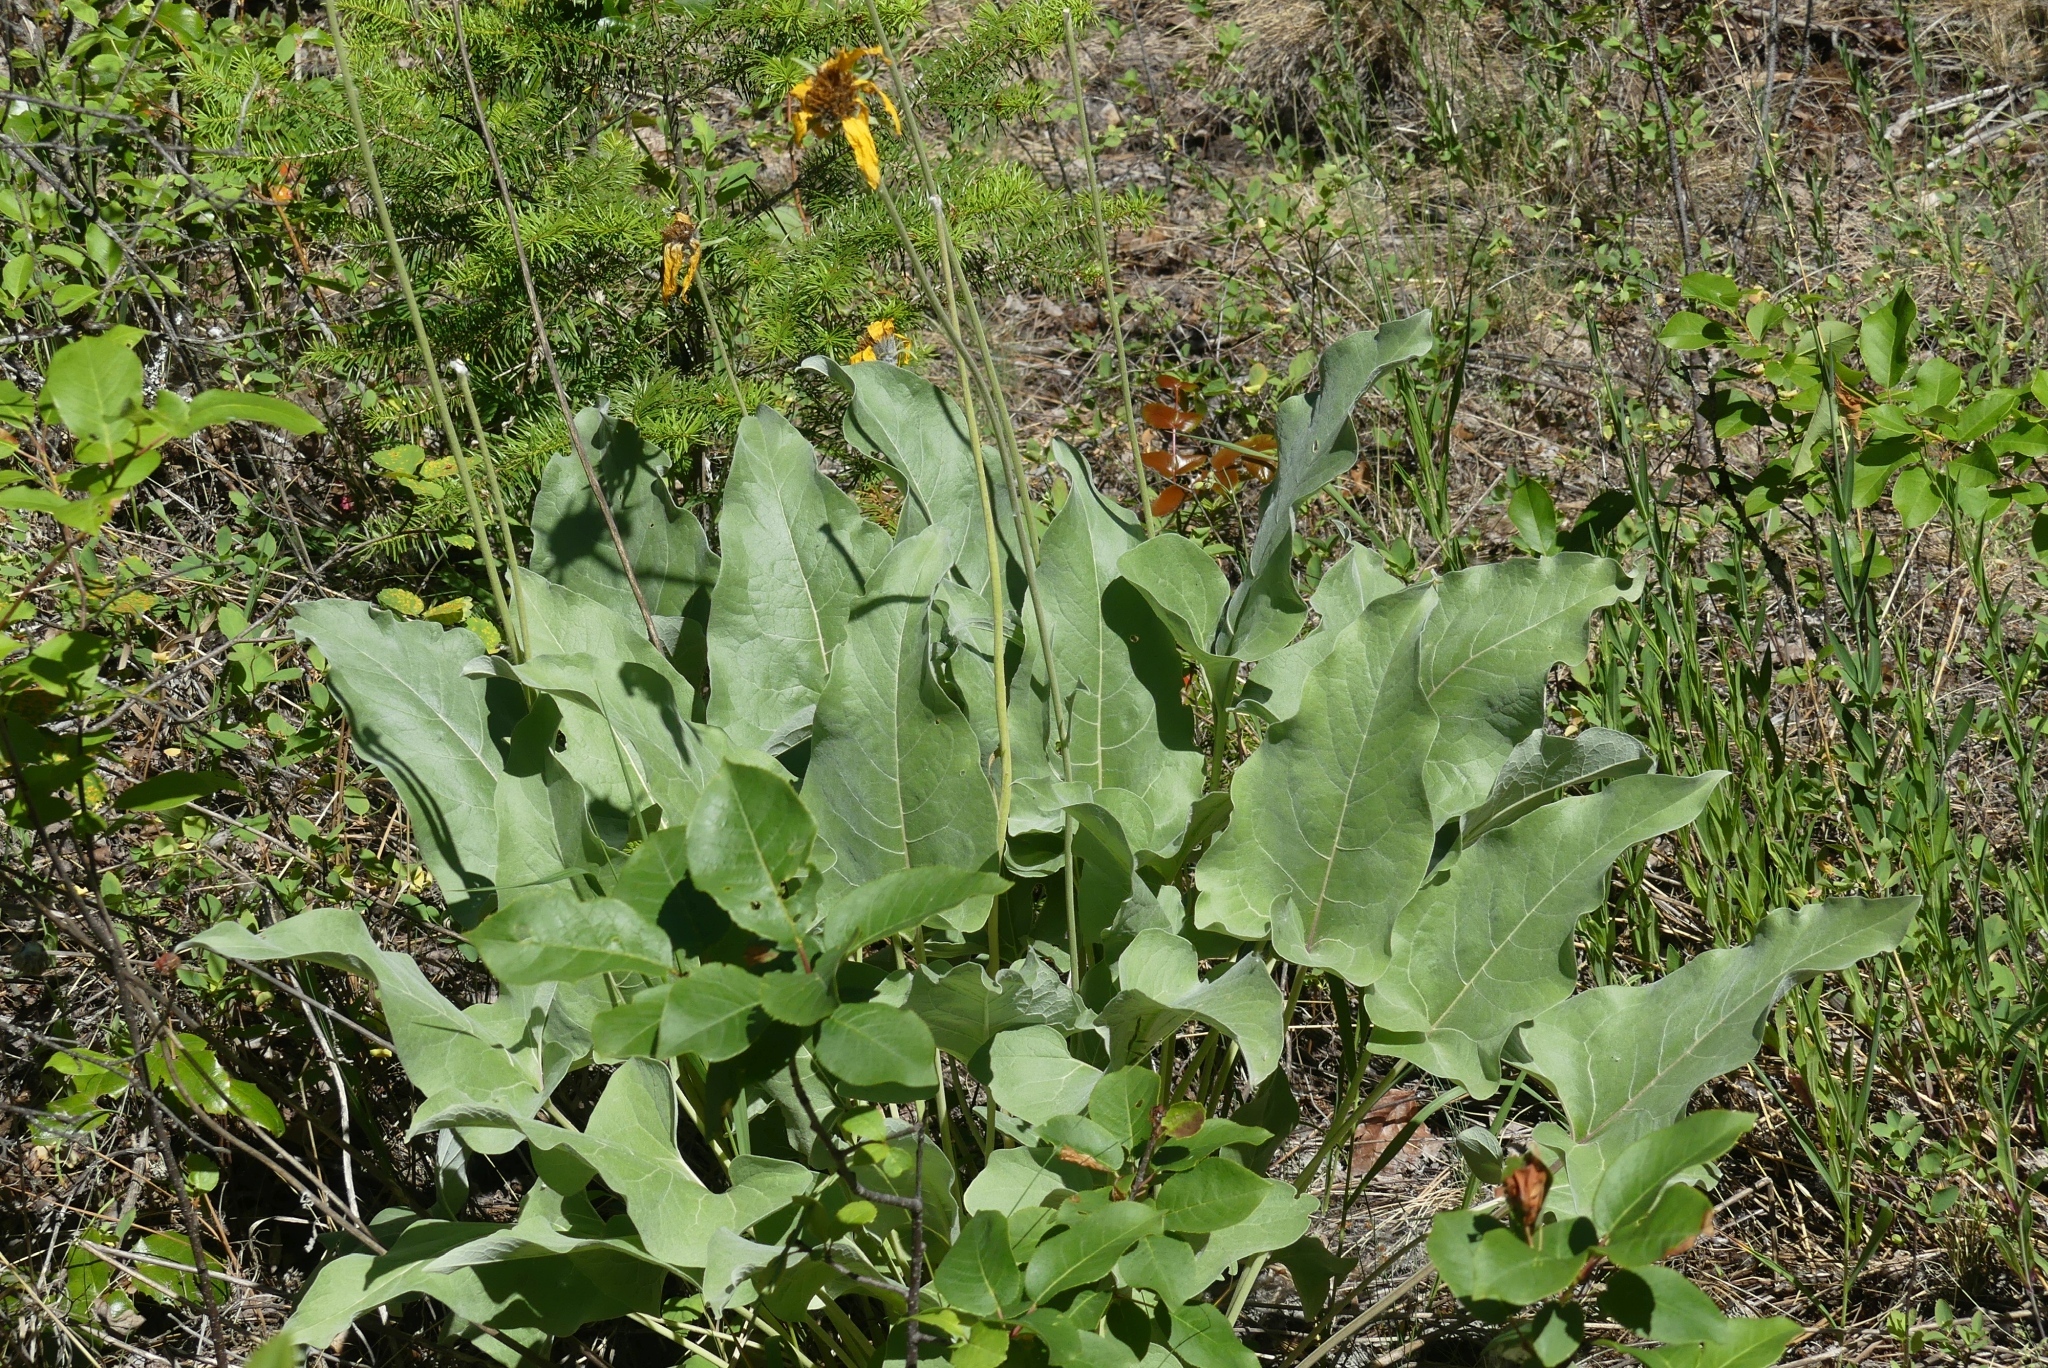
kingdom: Plantae
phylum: Tracheophyta
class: Magnoliopsida
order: Asterales
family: Asteraceae
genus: Wyethia
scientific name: Wyethia sagittata
